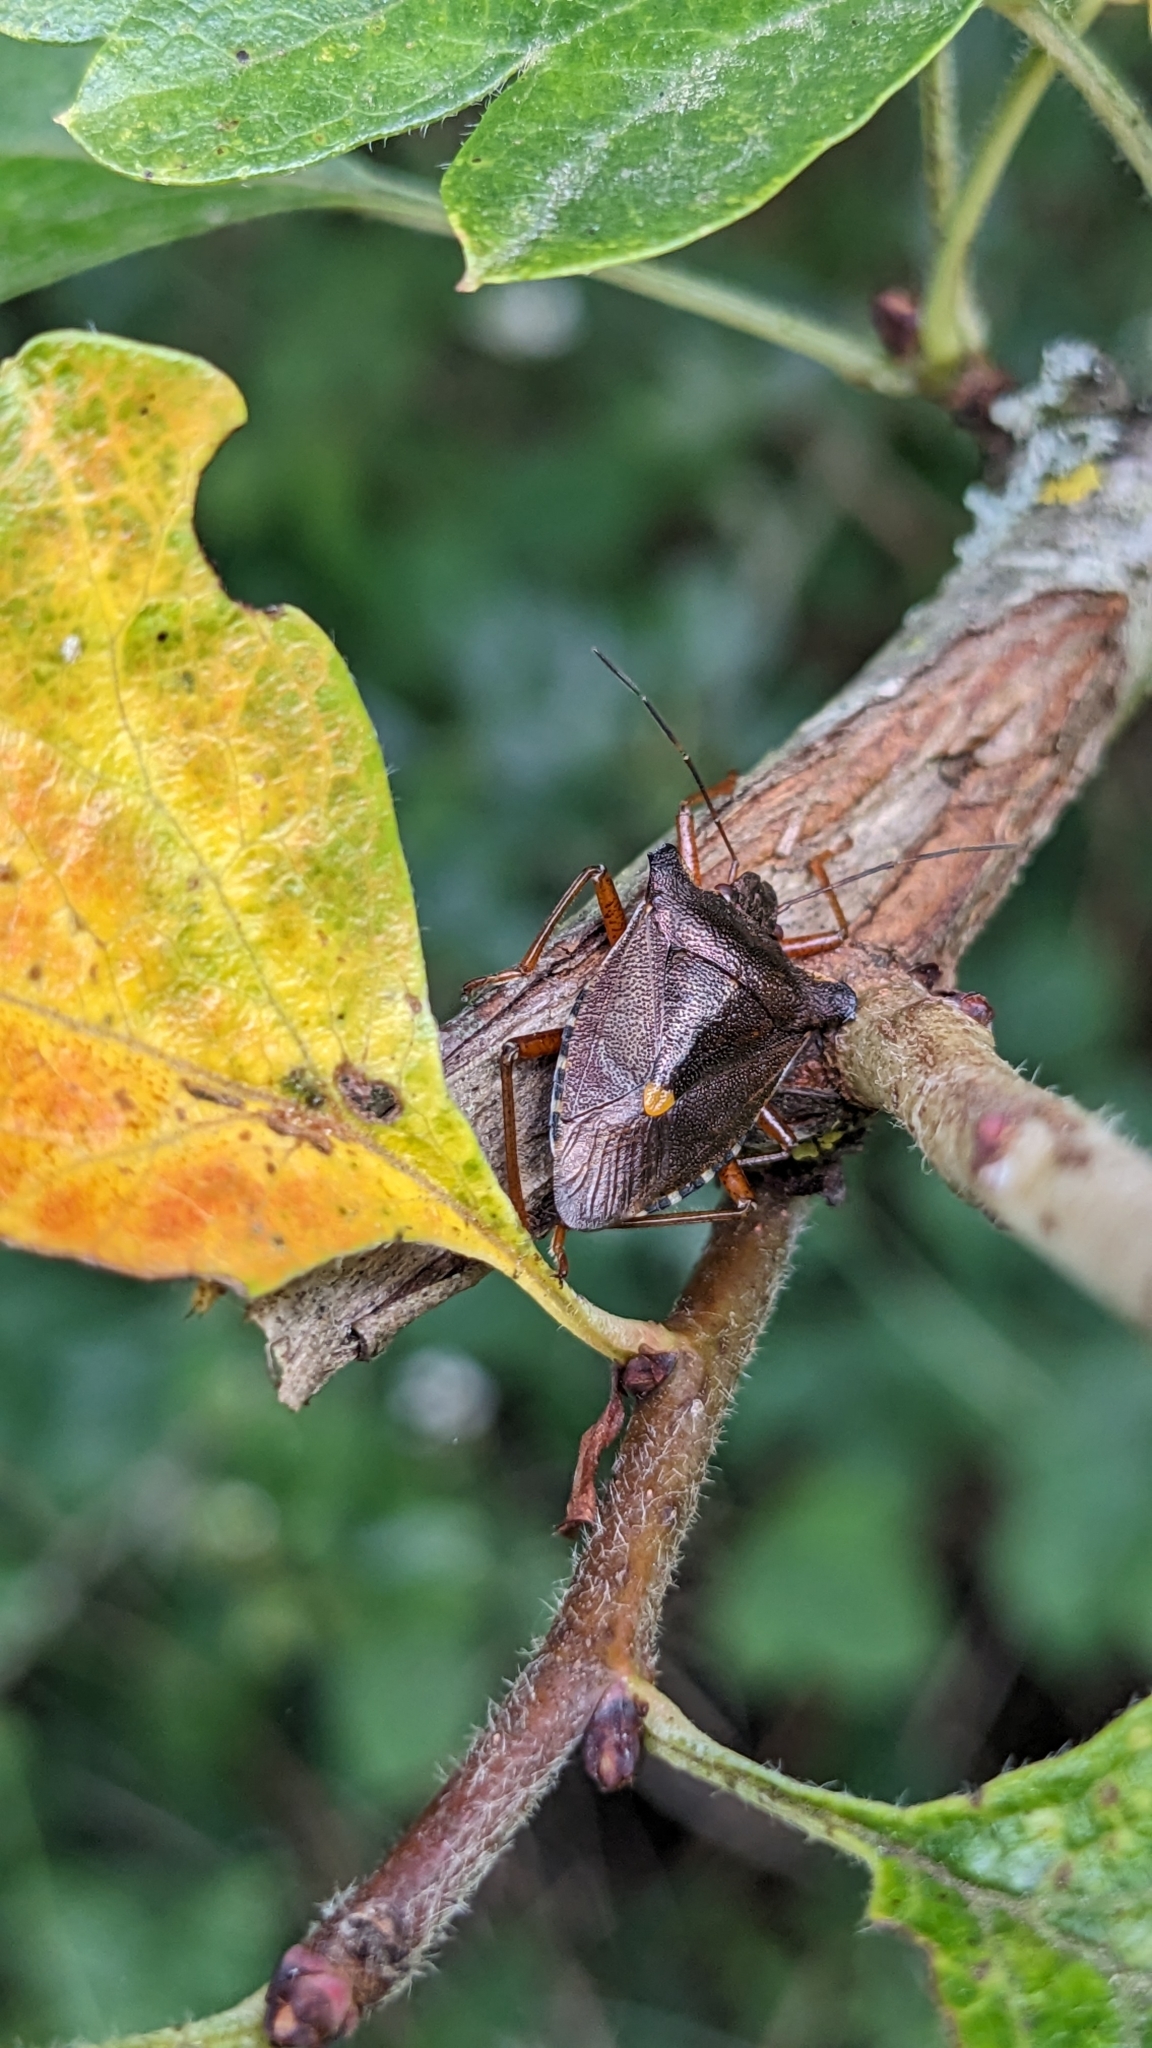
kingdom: Animalia
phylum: Arthropoda
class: Insecta
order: Hemiptera
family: Pentatomidae
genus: Pentatoma
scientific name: Pentatoma rufipes
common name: Forest bug
